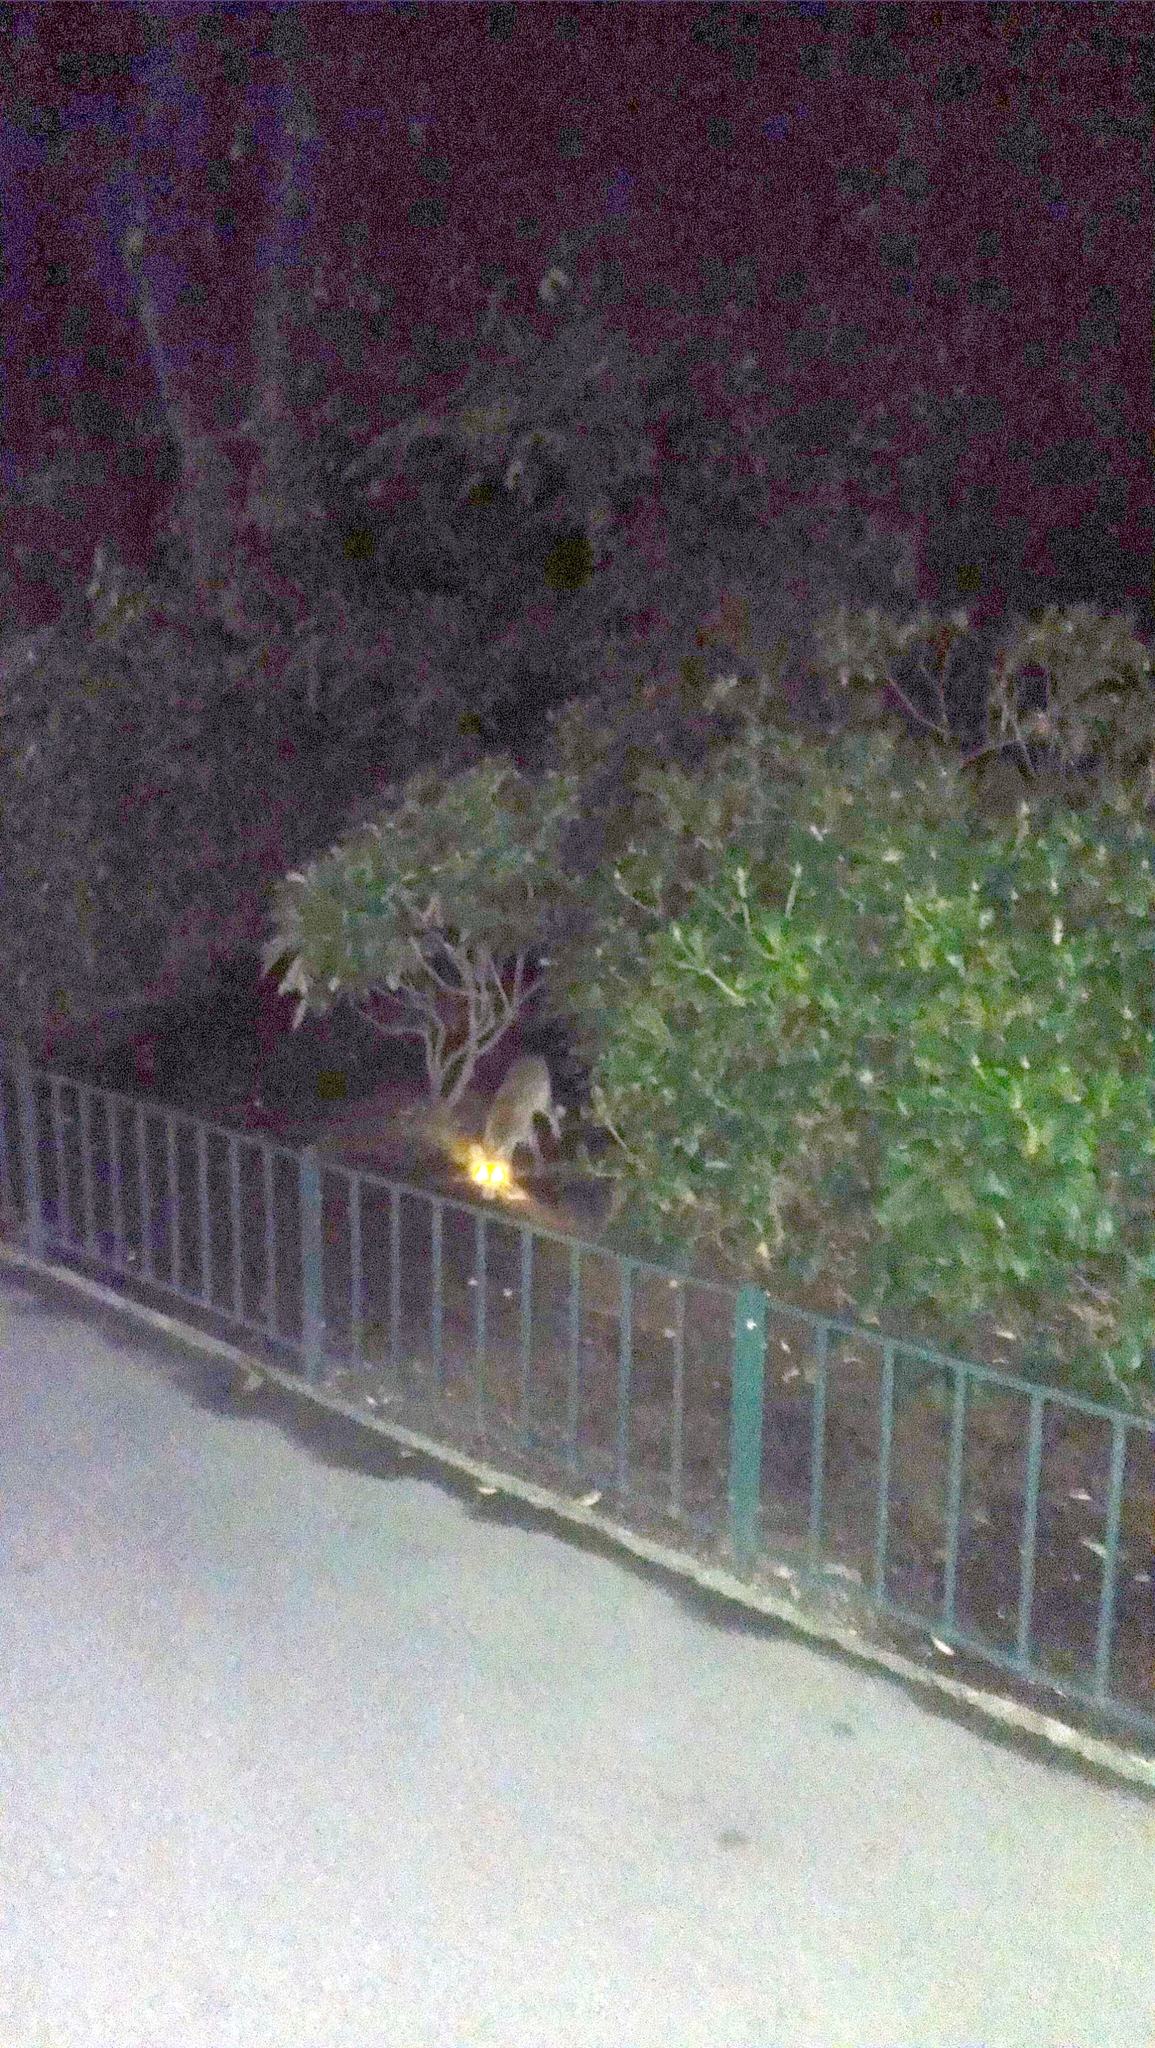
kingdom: Animalia
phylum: Chordata
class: Mammalia
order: Carnivora
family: Canidae
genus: Vulpes
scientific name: Vulpes vulpes
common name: Red fox
